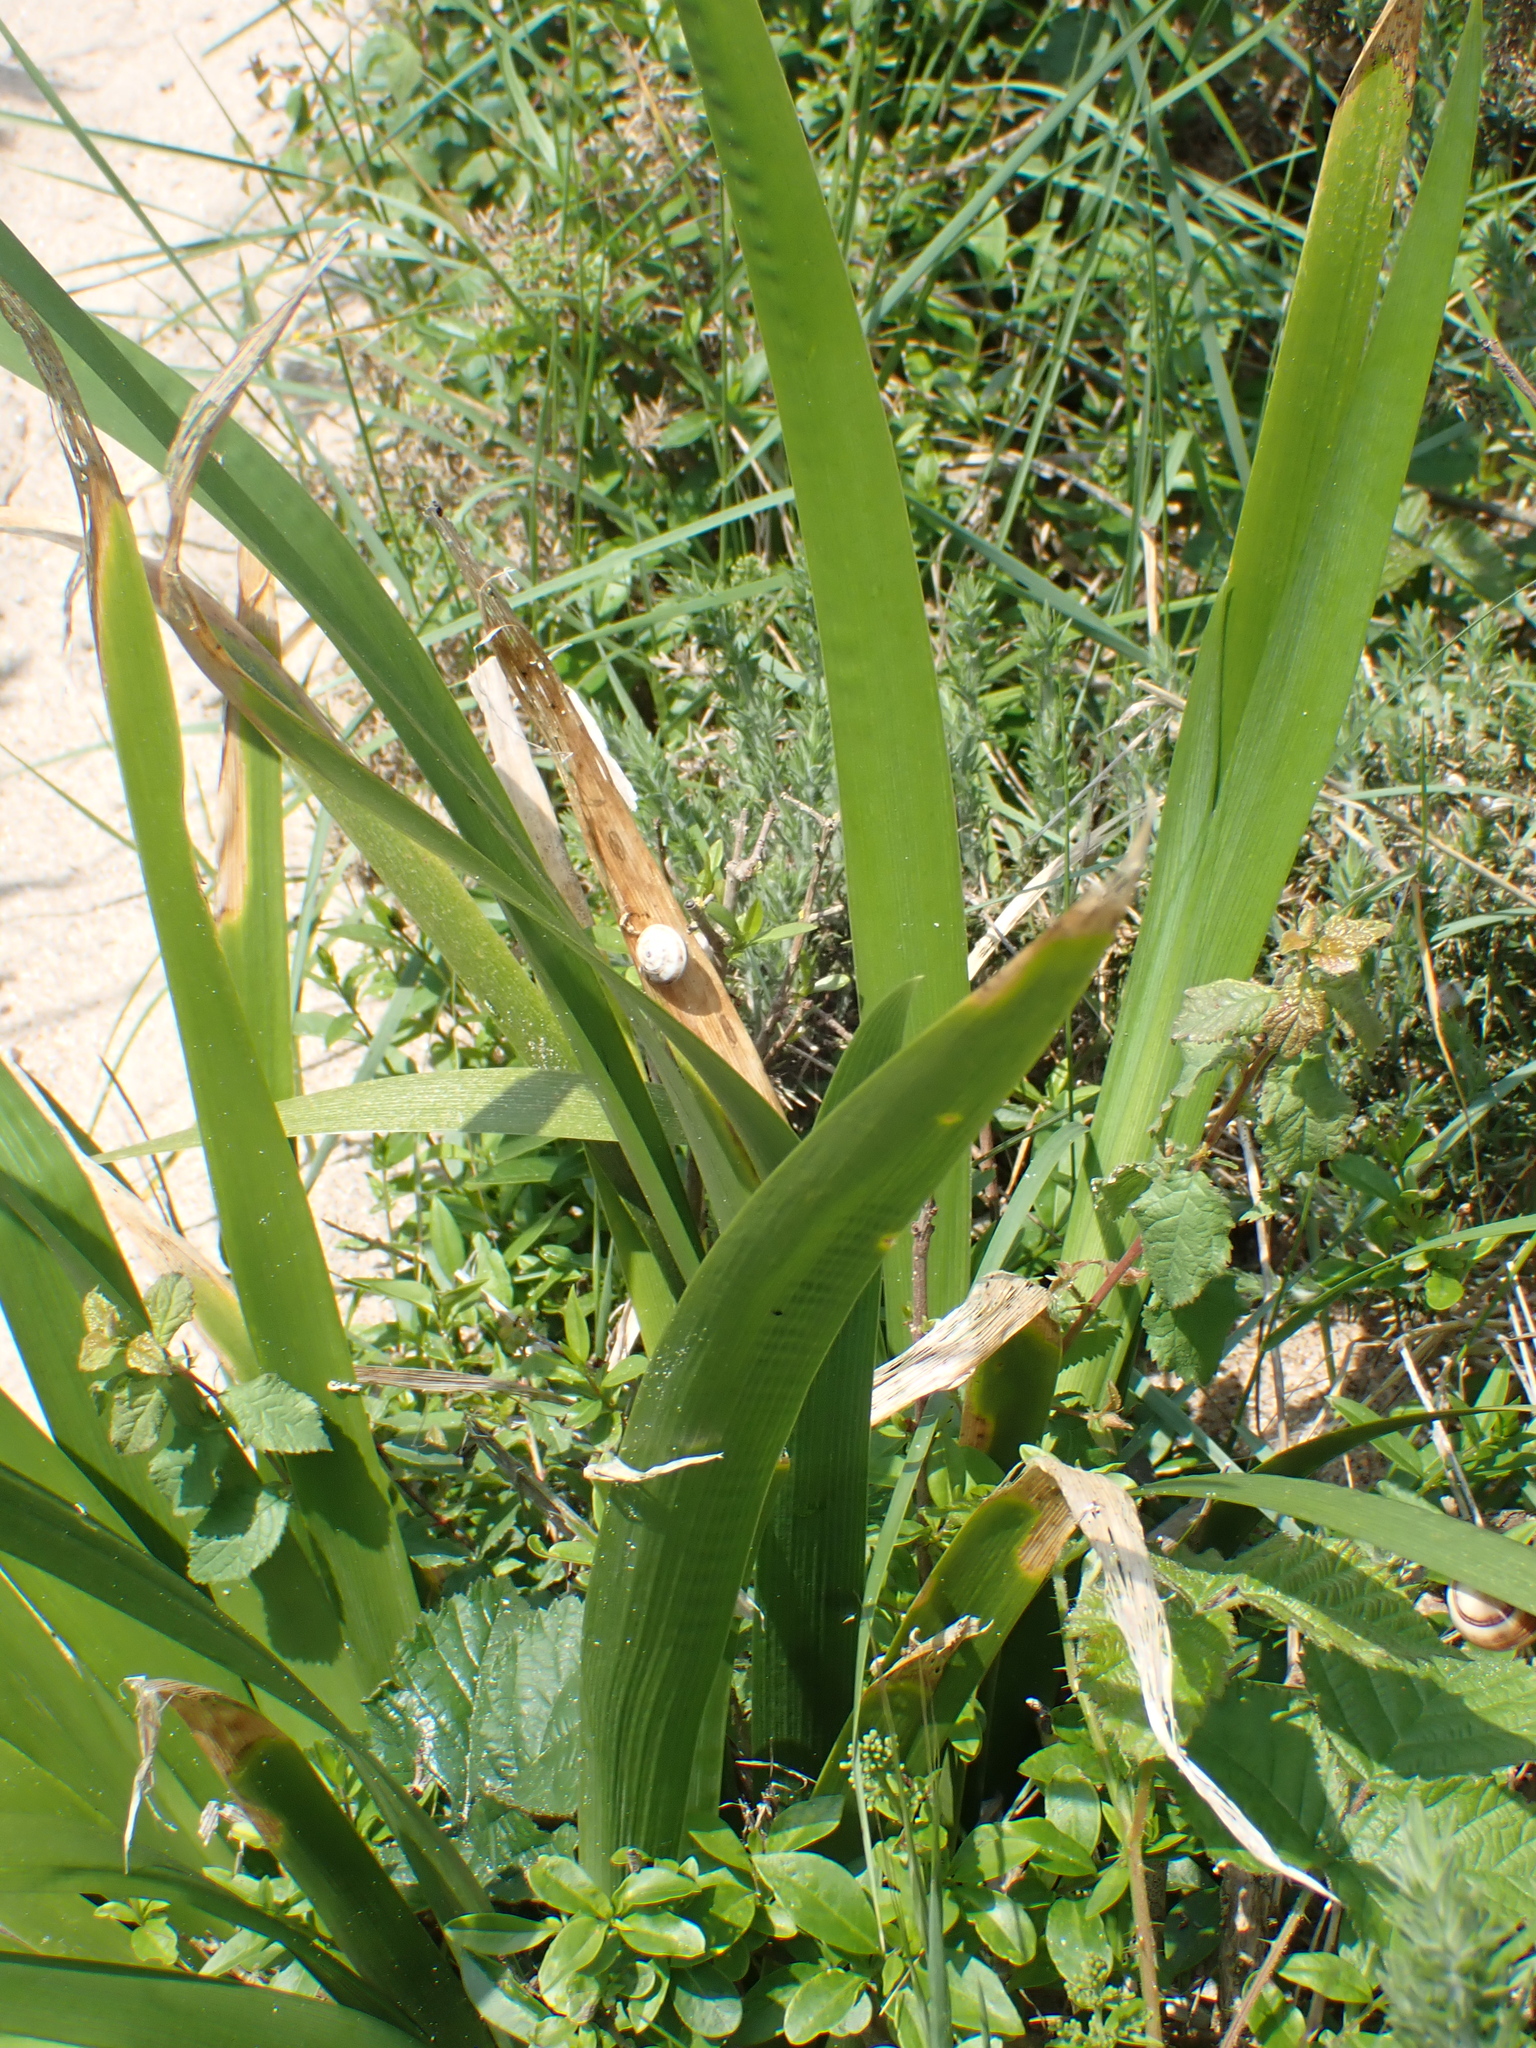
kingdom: Plantae
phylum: Tracheophyta
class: Liliopsida
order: Asparagales
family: Iridaceae
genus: Iris
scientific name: Iris foetidissima
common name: Stinking iris
